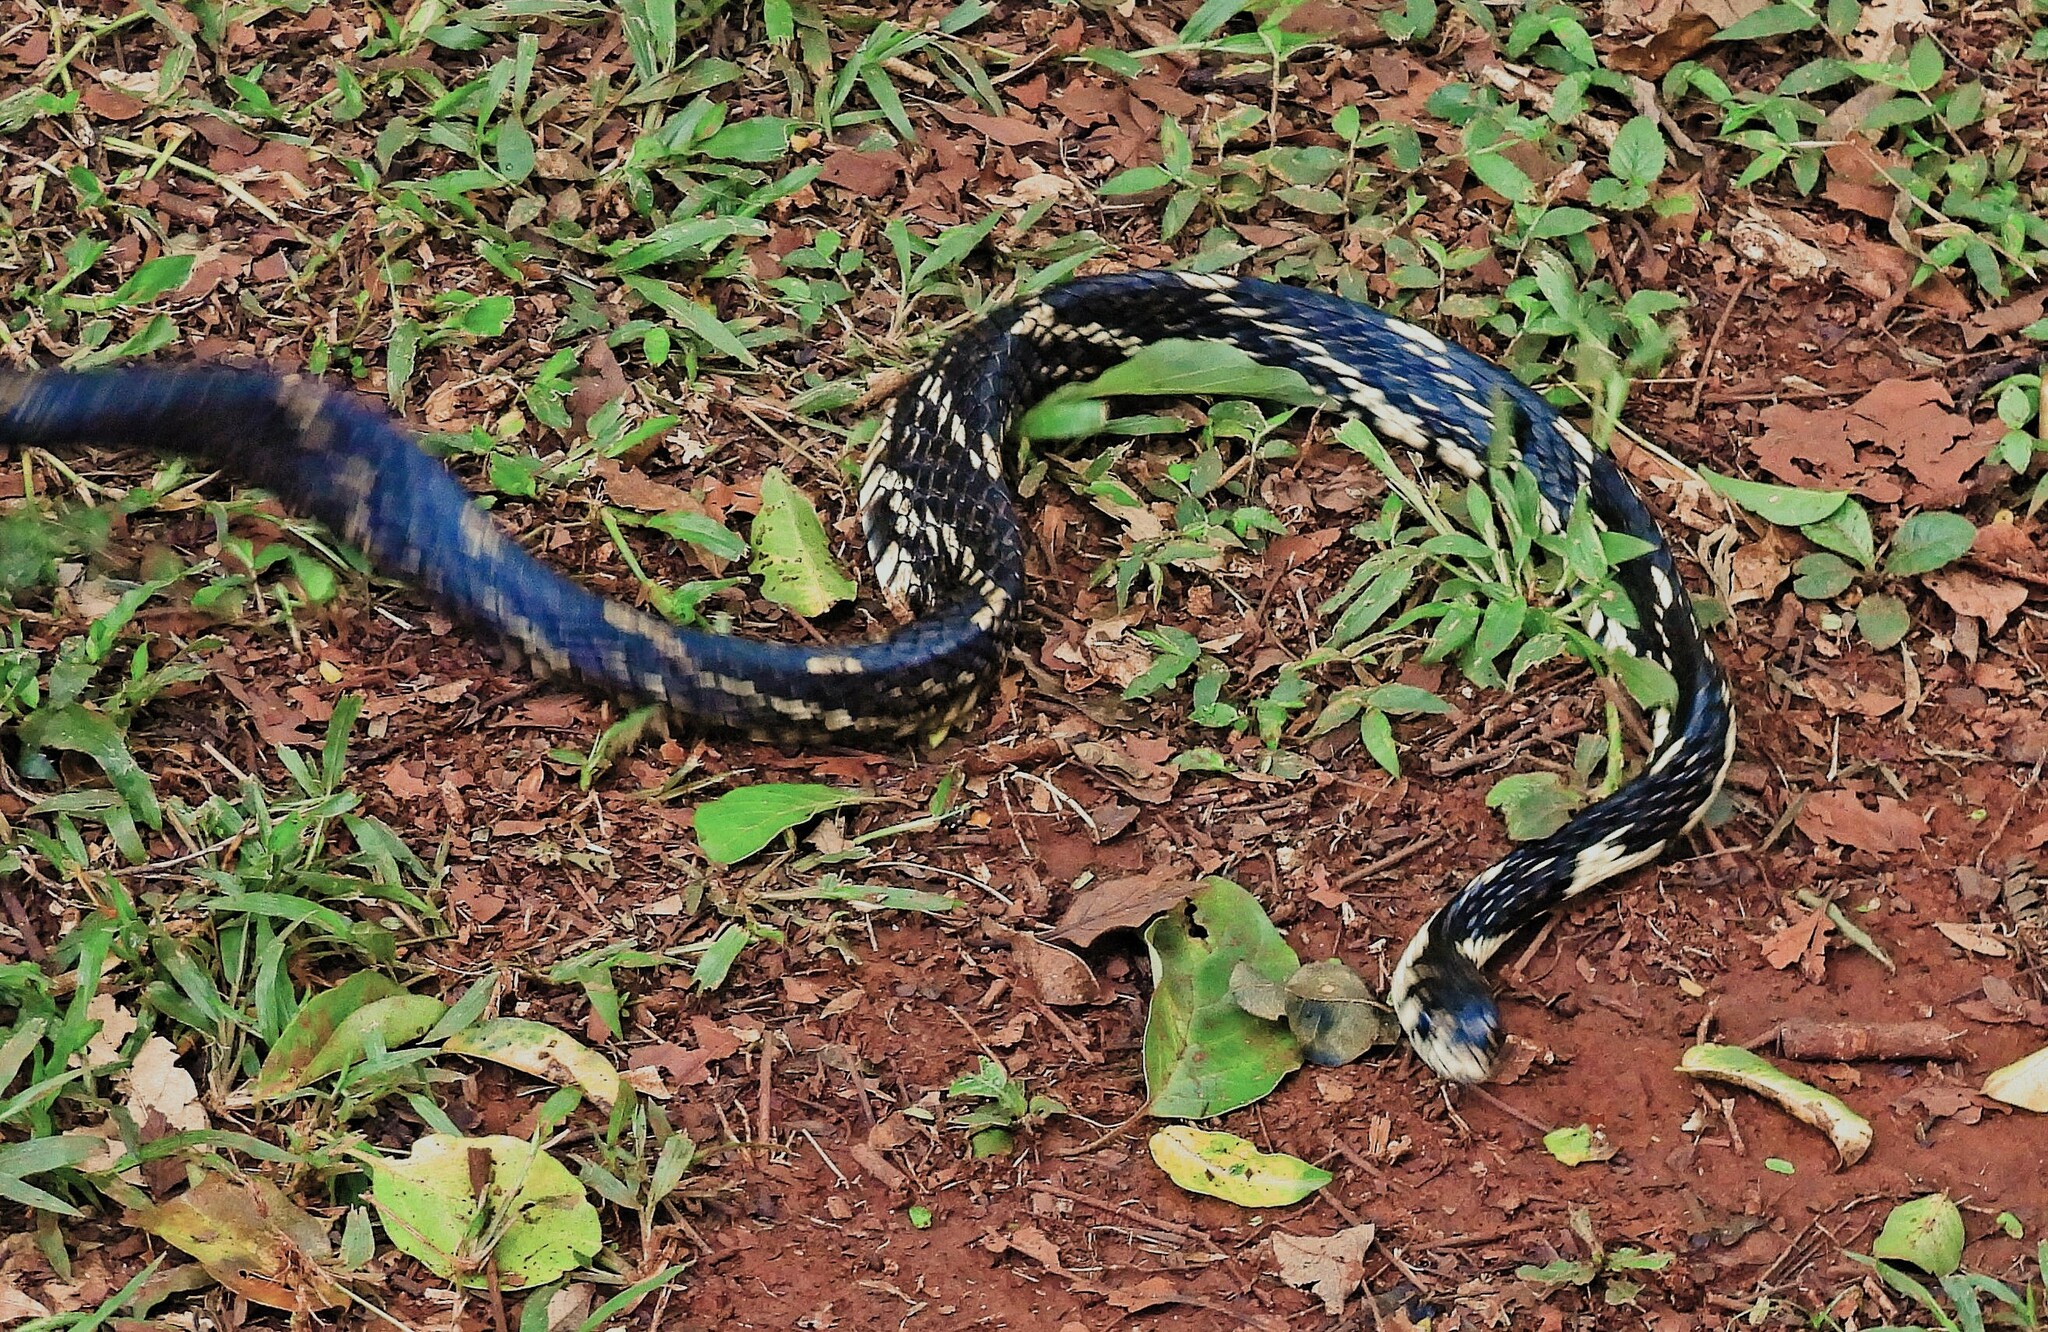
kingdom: Animalia
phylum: Chordata
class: Squamata
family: Colubridae
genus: Spilotes
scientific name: Spilotes pullatus
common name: Chicken snake
